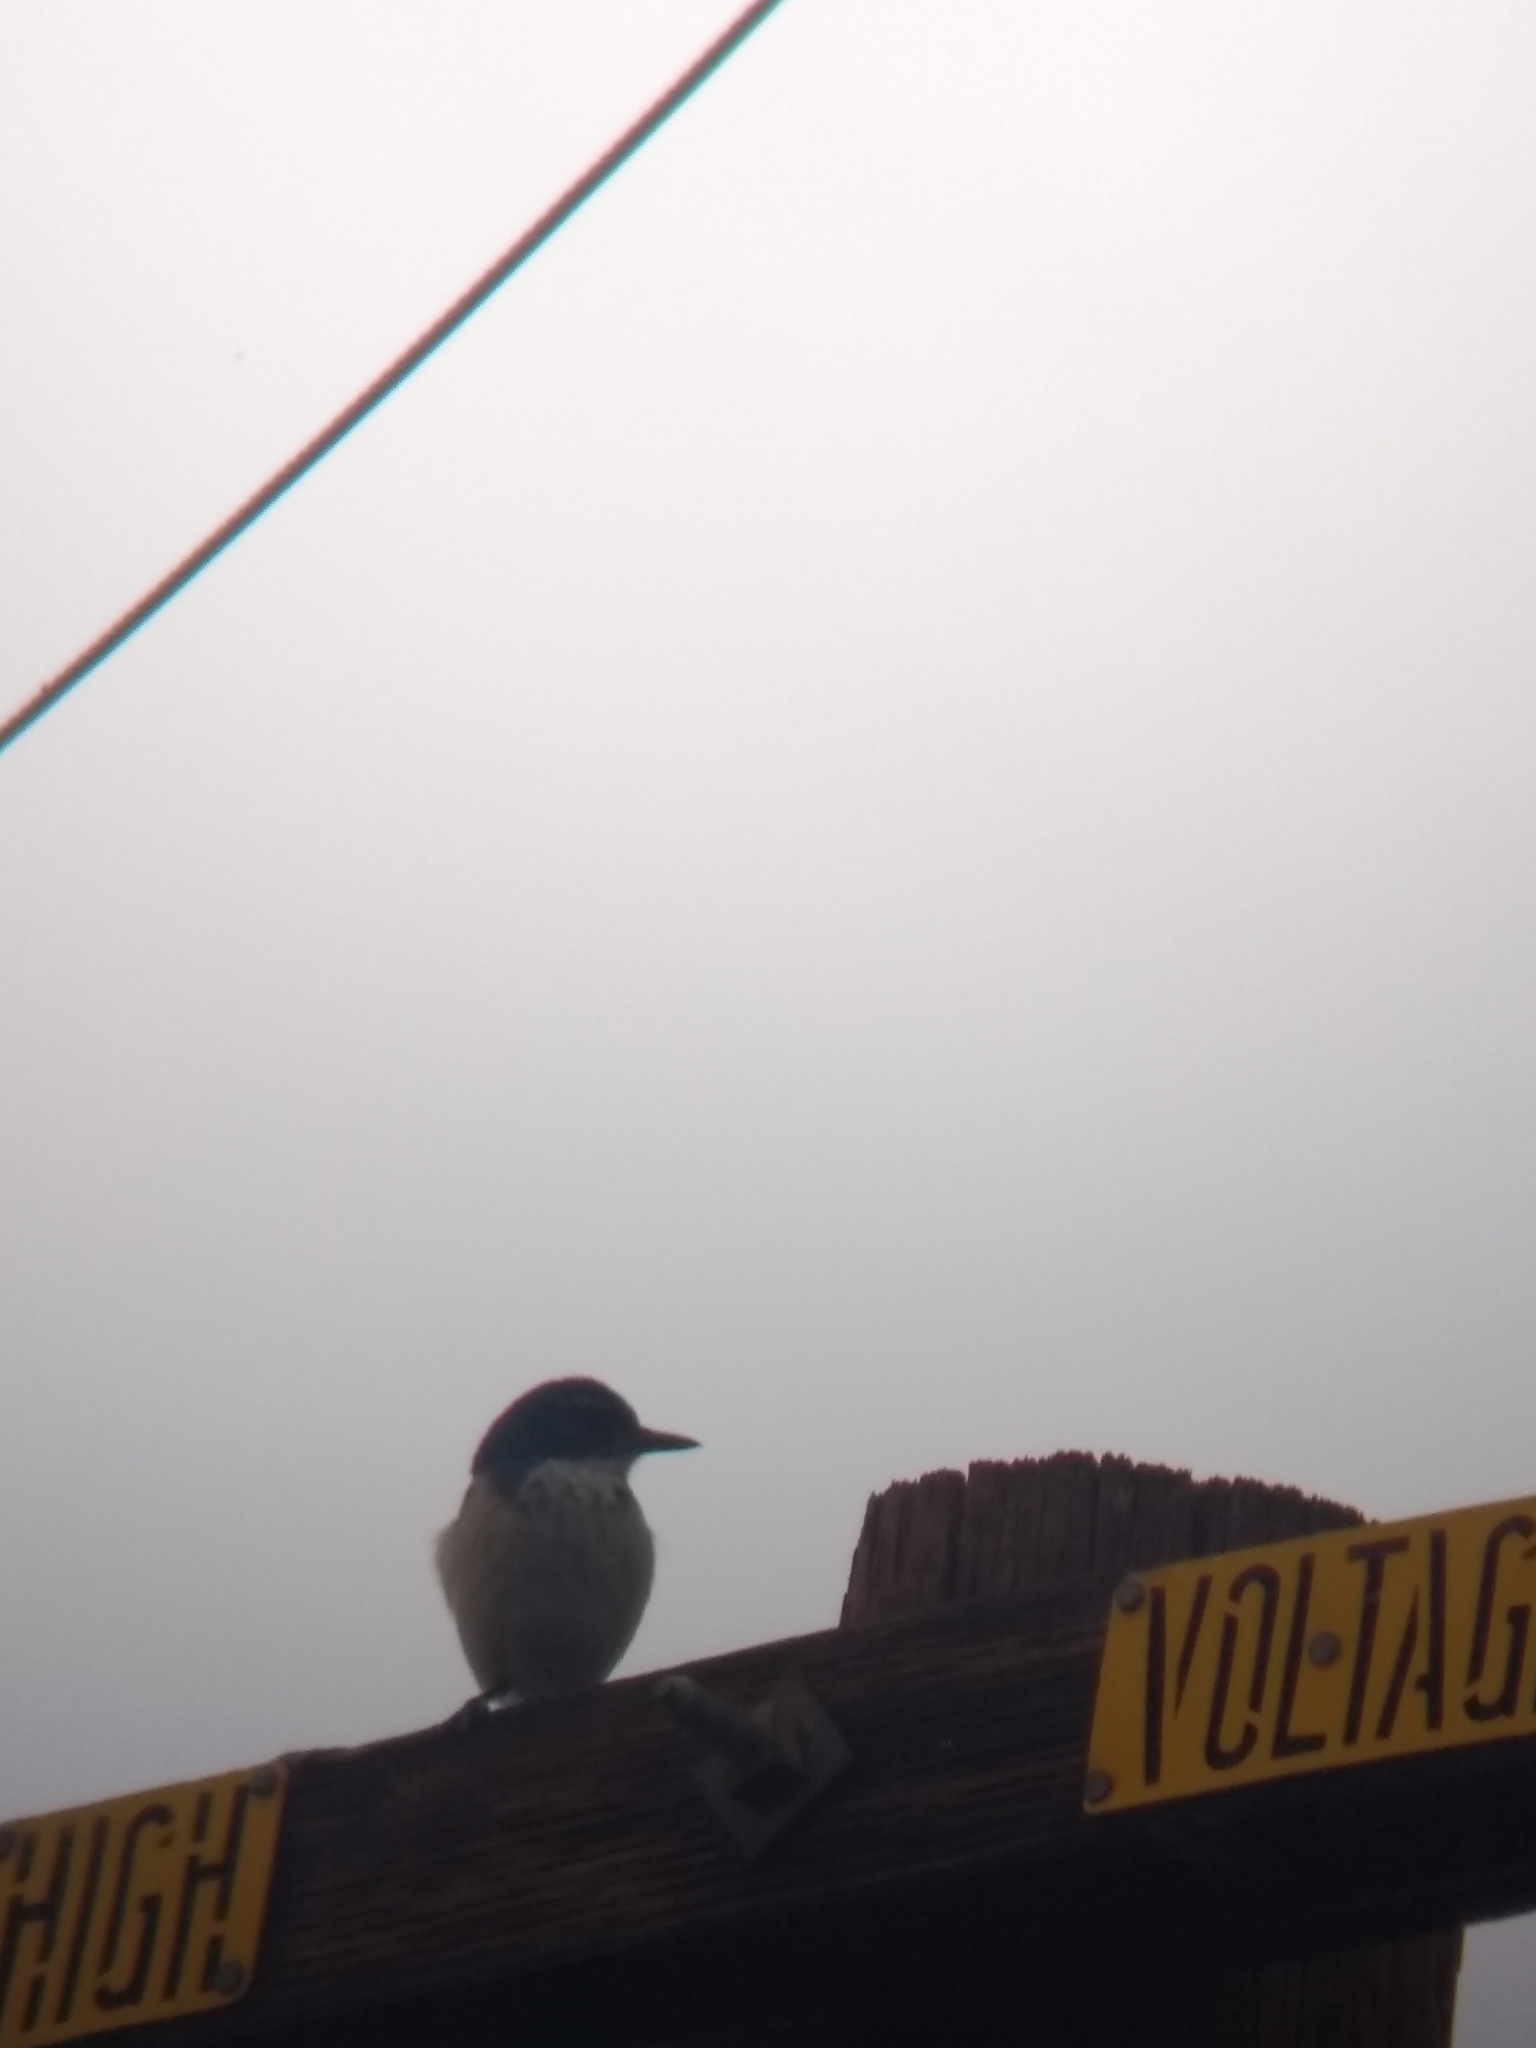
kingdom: Animalia
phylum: Chordata
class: Aves
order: Passeriformes
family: Corvidae
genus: Aphelocoma
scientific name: Aphelocoma californica
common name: California scrub-jay
